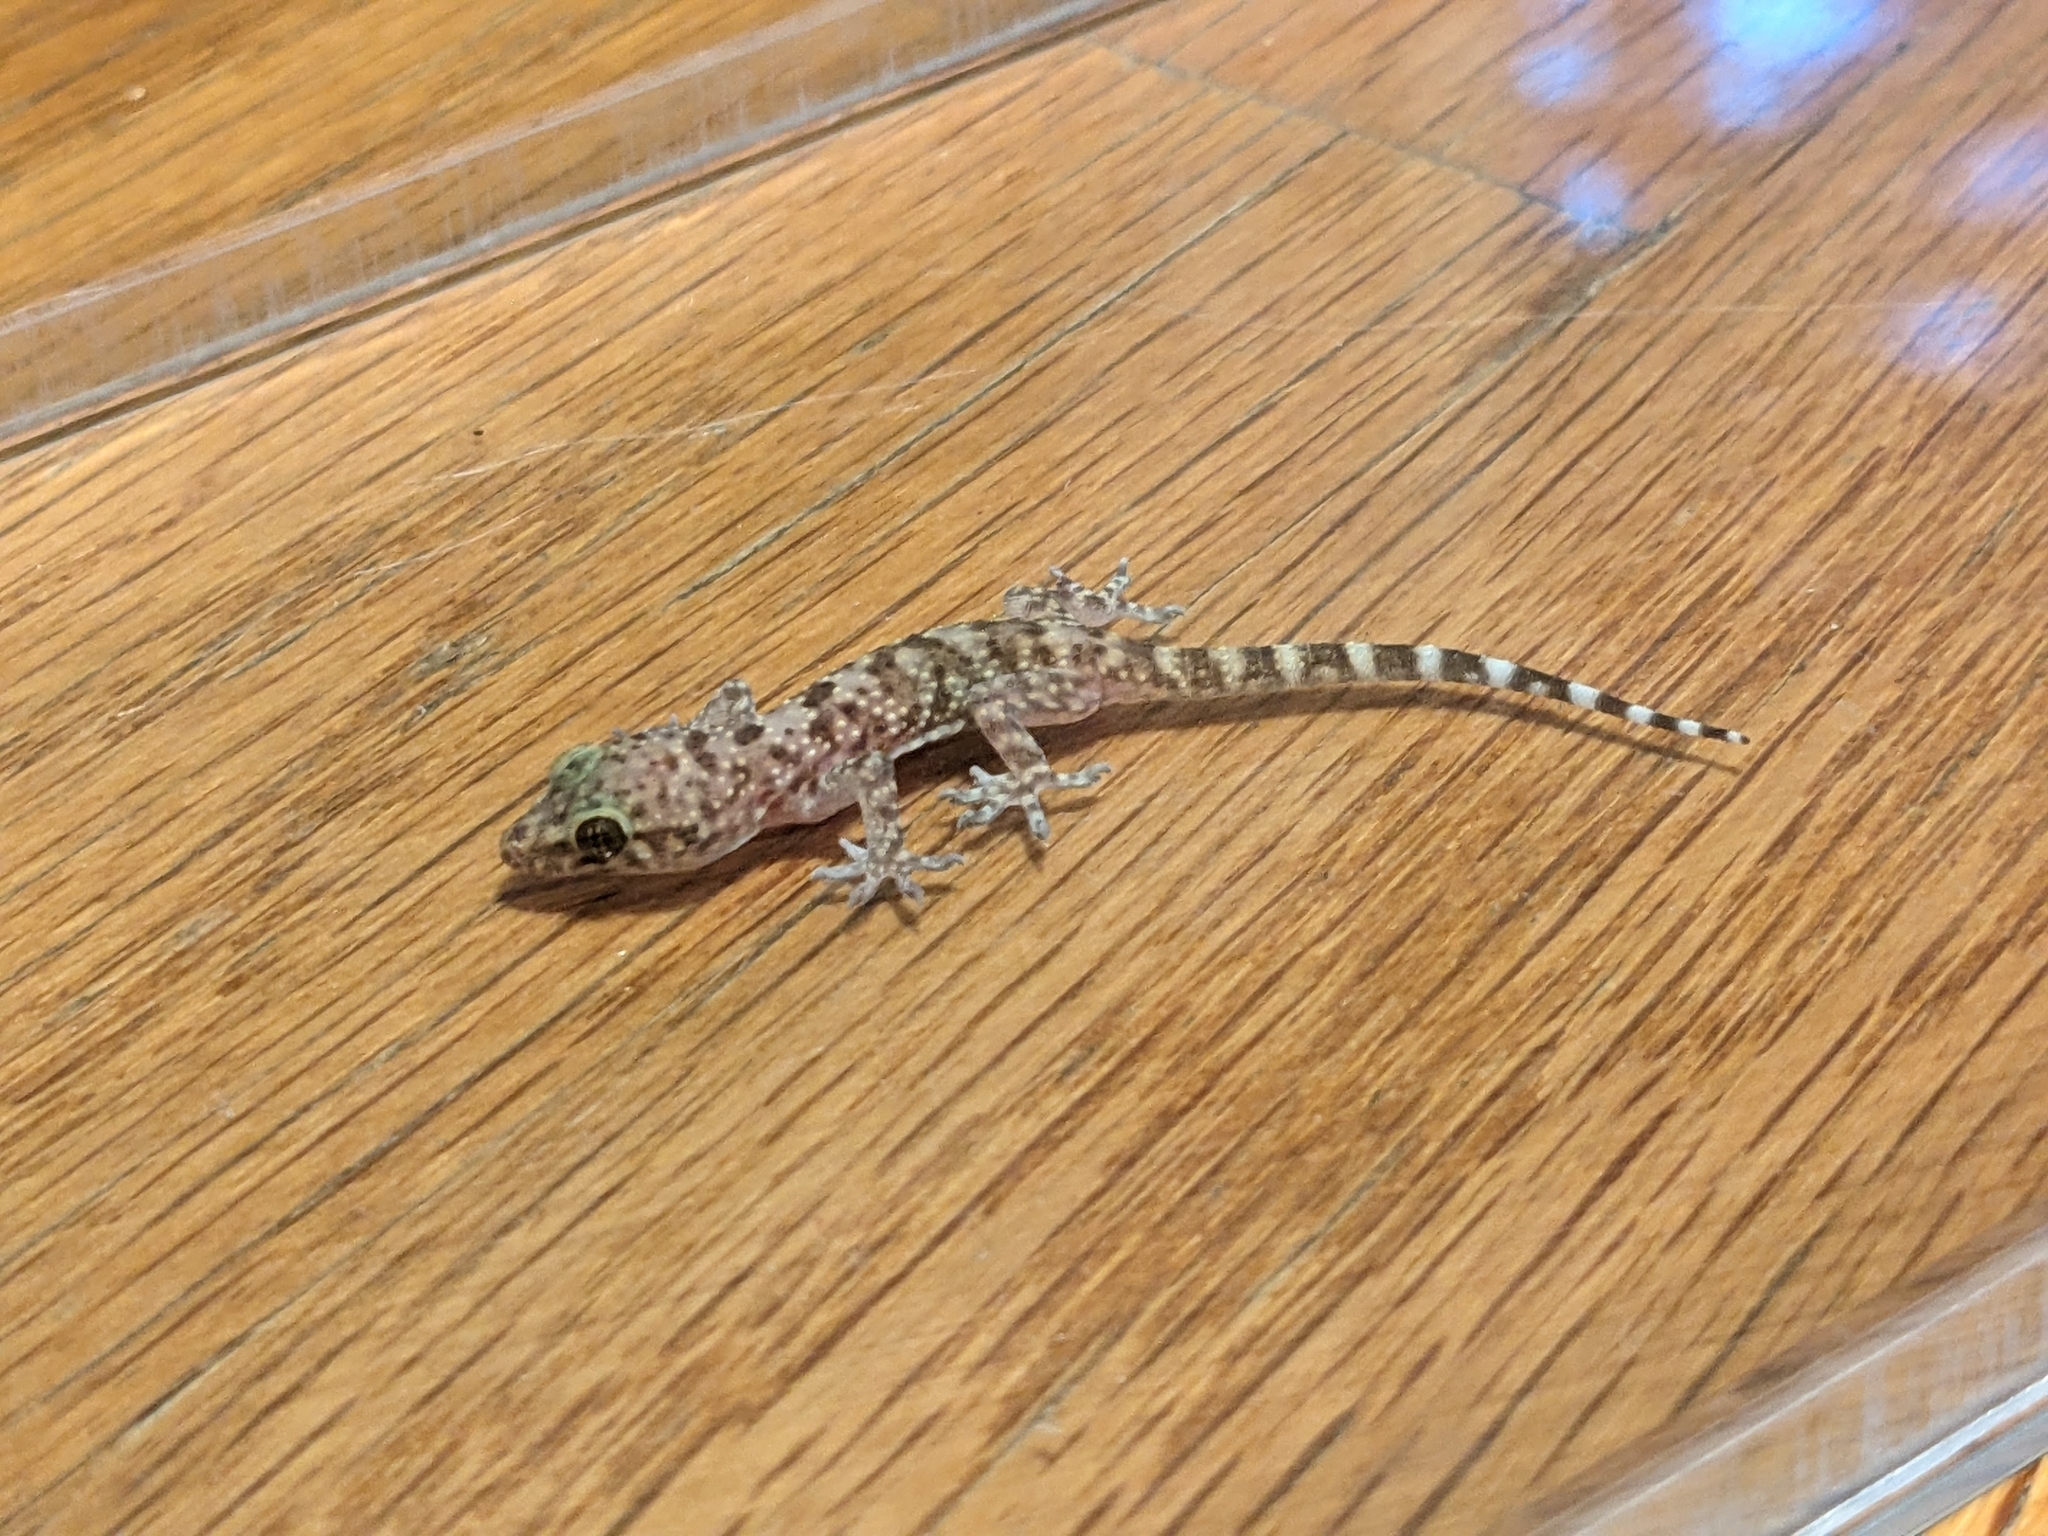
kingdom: Animalia
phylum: Chordata
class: Squamata
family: Gekkonidae
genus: Hemidactylus
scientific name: Hemidactylus turcicus
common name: Turkish gecko
